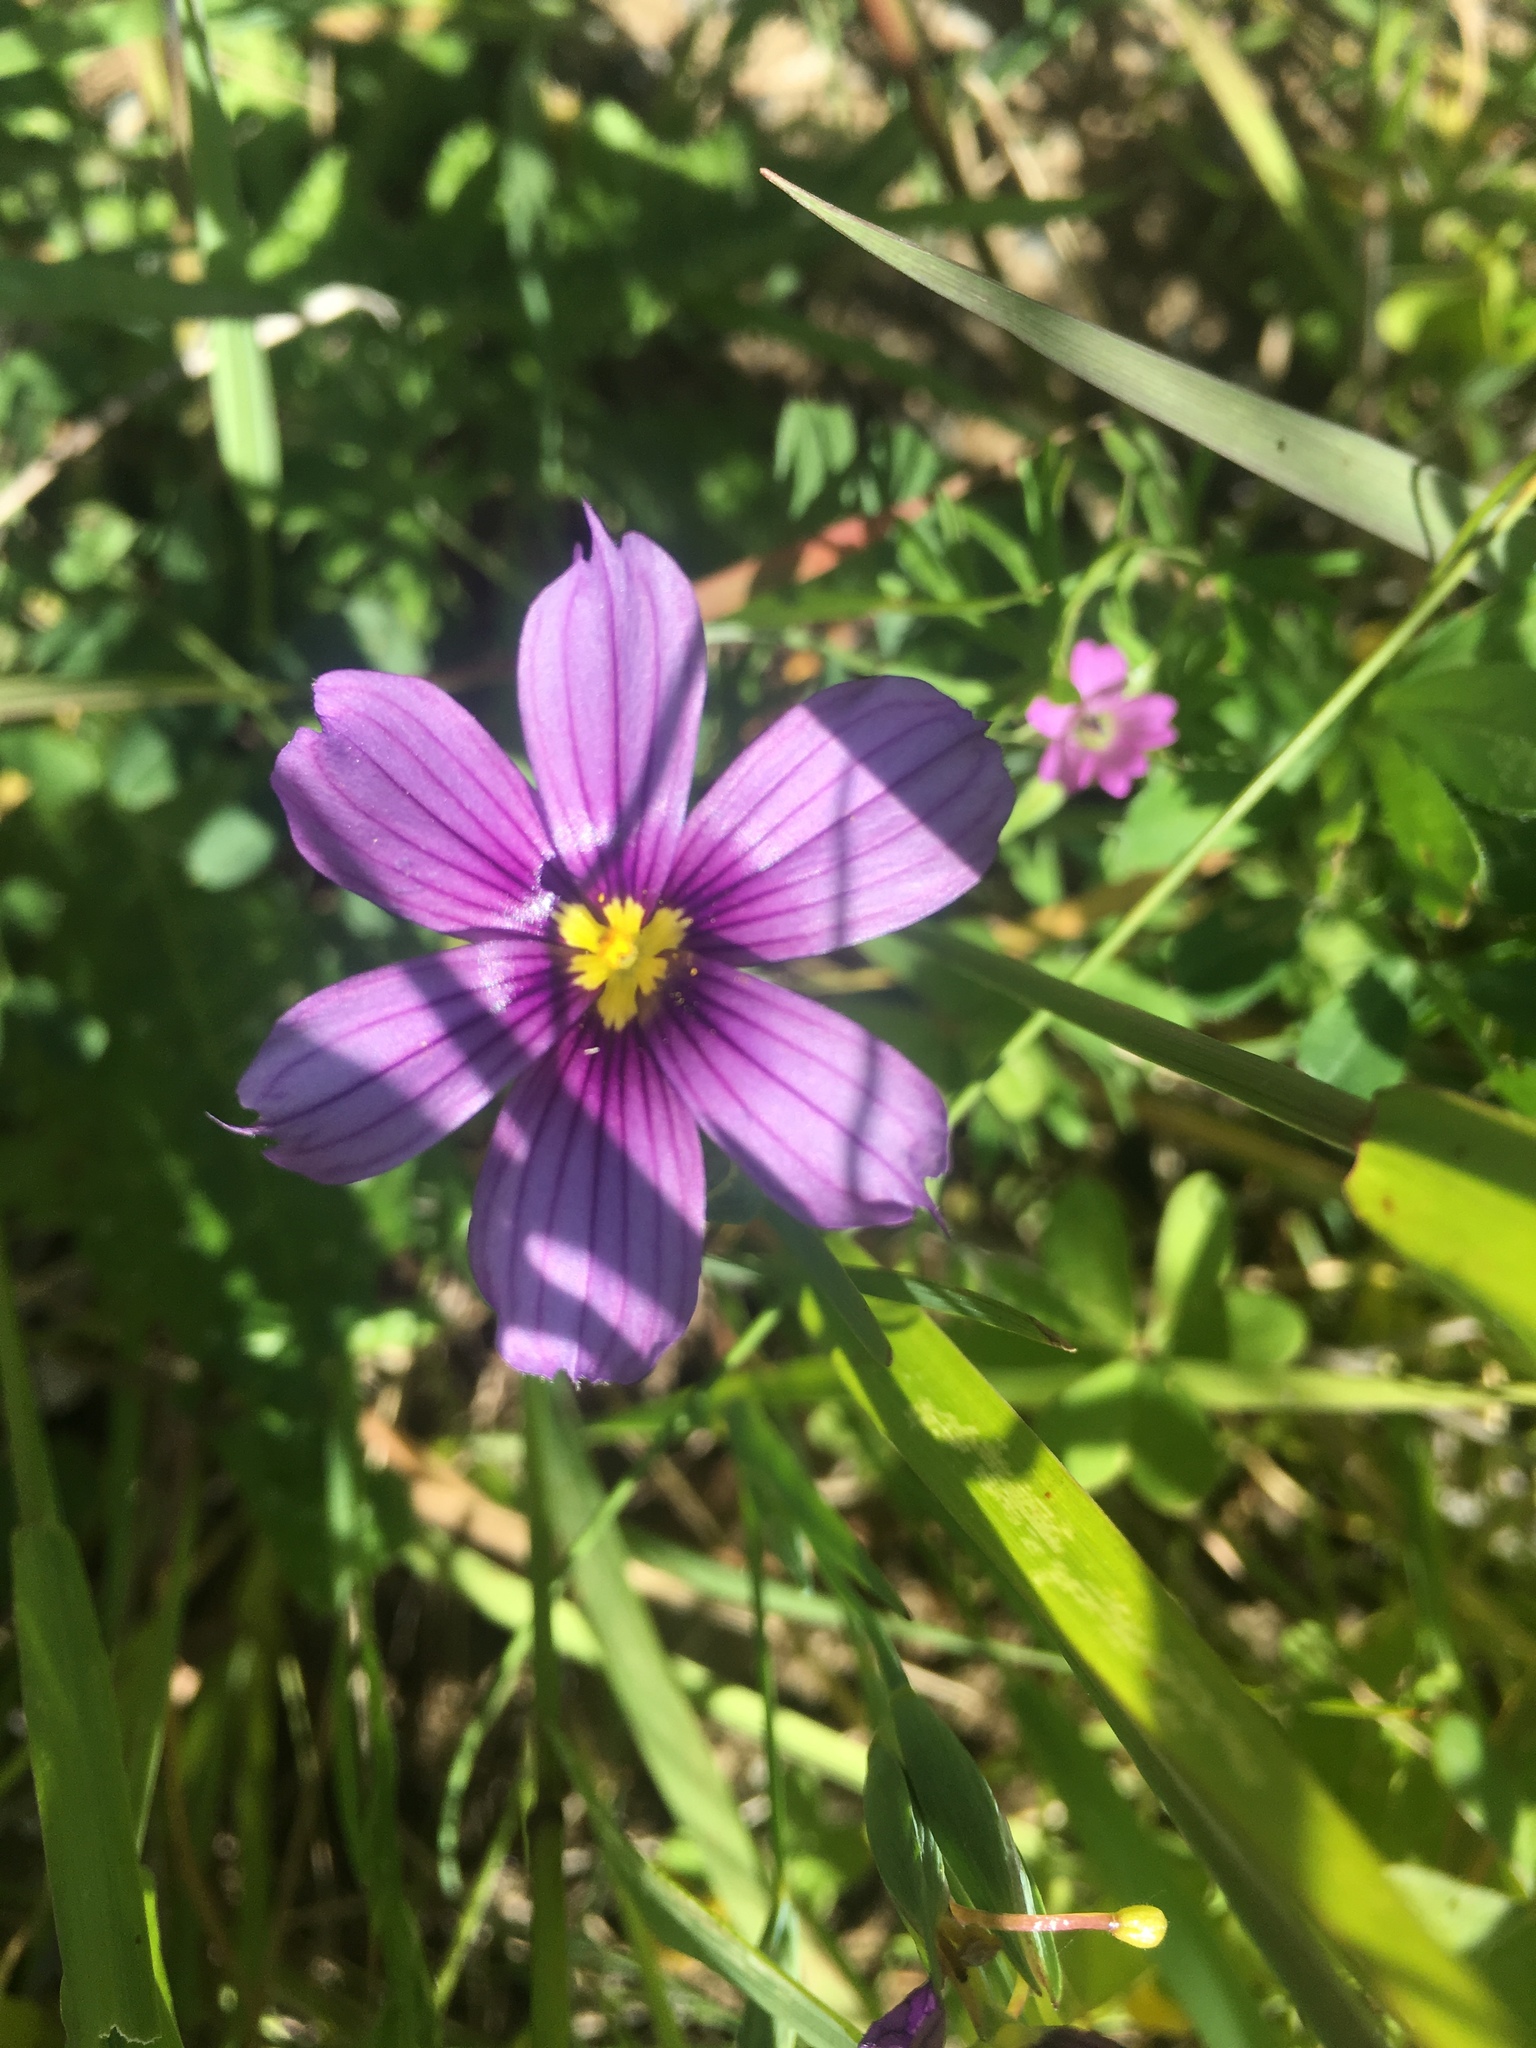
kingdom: Plantae
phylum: Tracheophyta
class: Liliopsida
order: Asparagales
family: Iridaceae
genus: Sisyrinchium
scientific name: Sisyrinchium bellum
